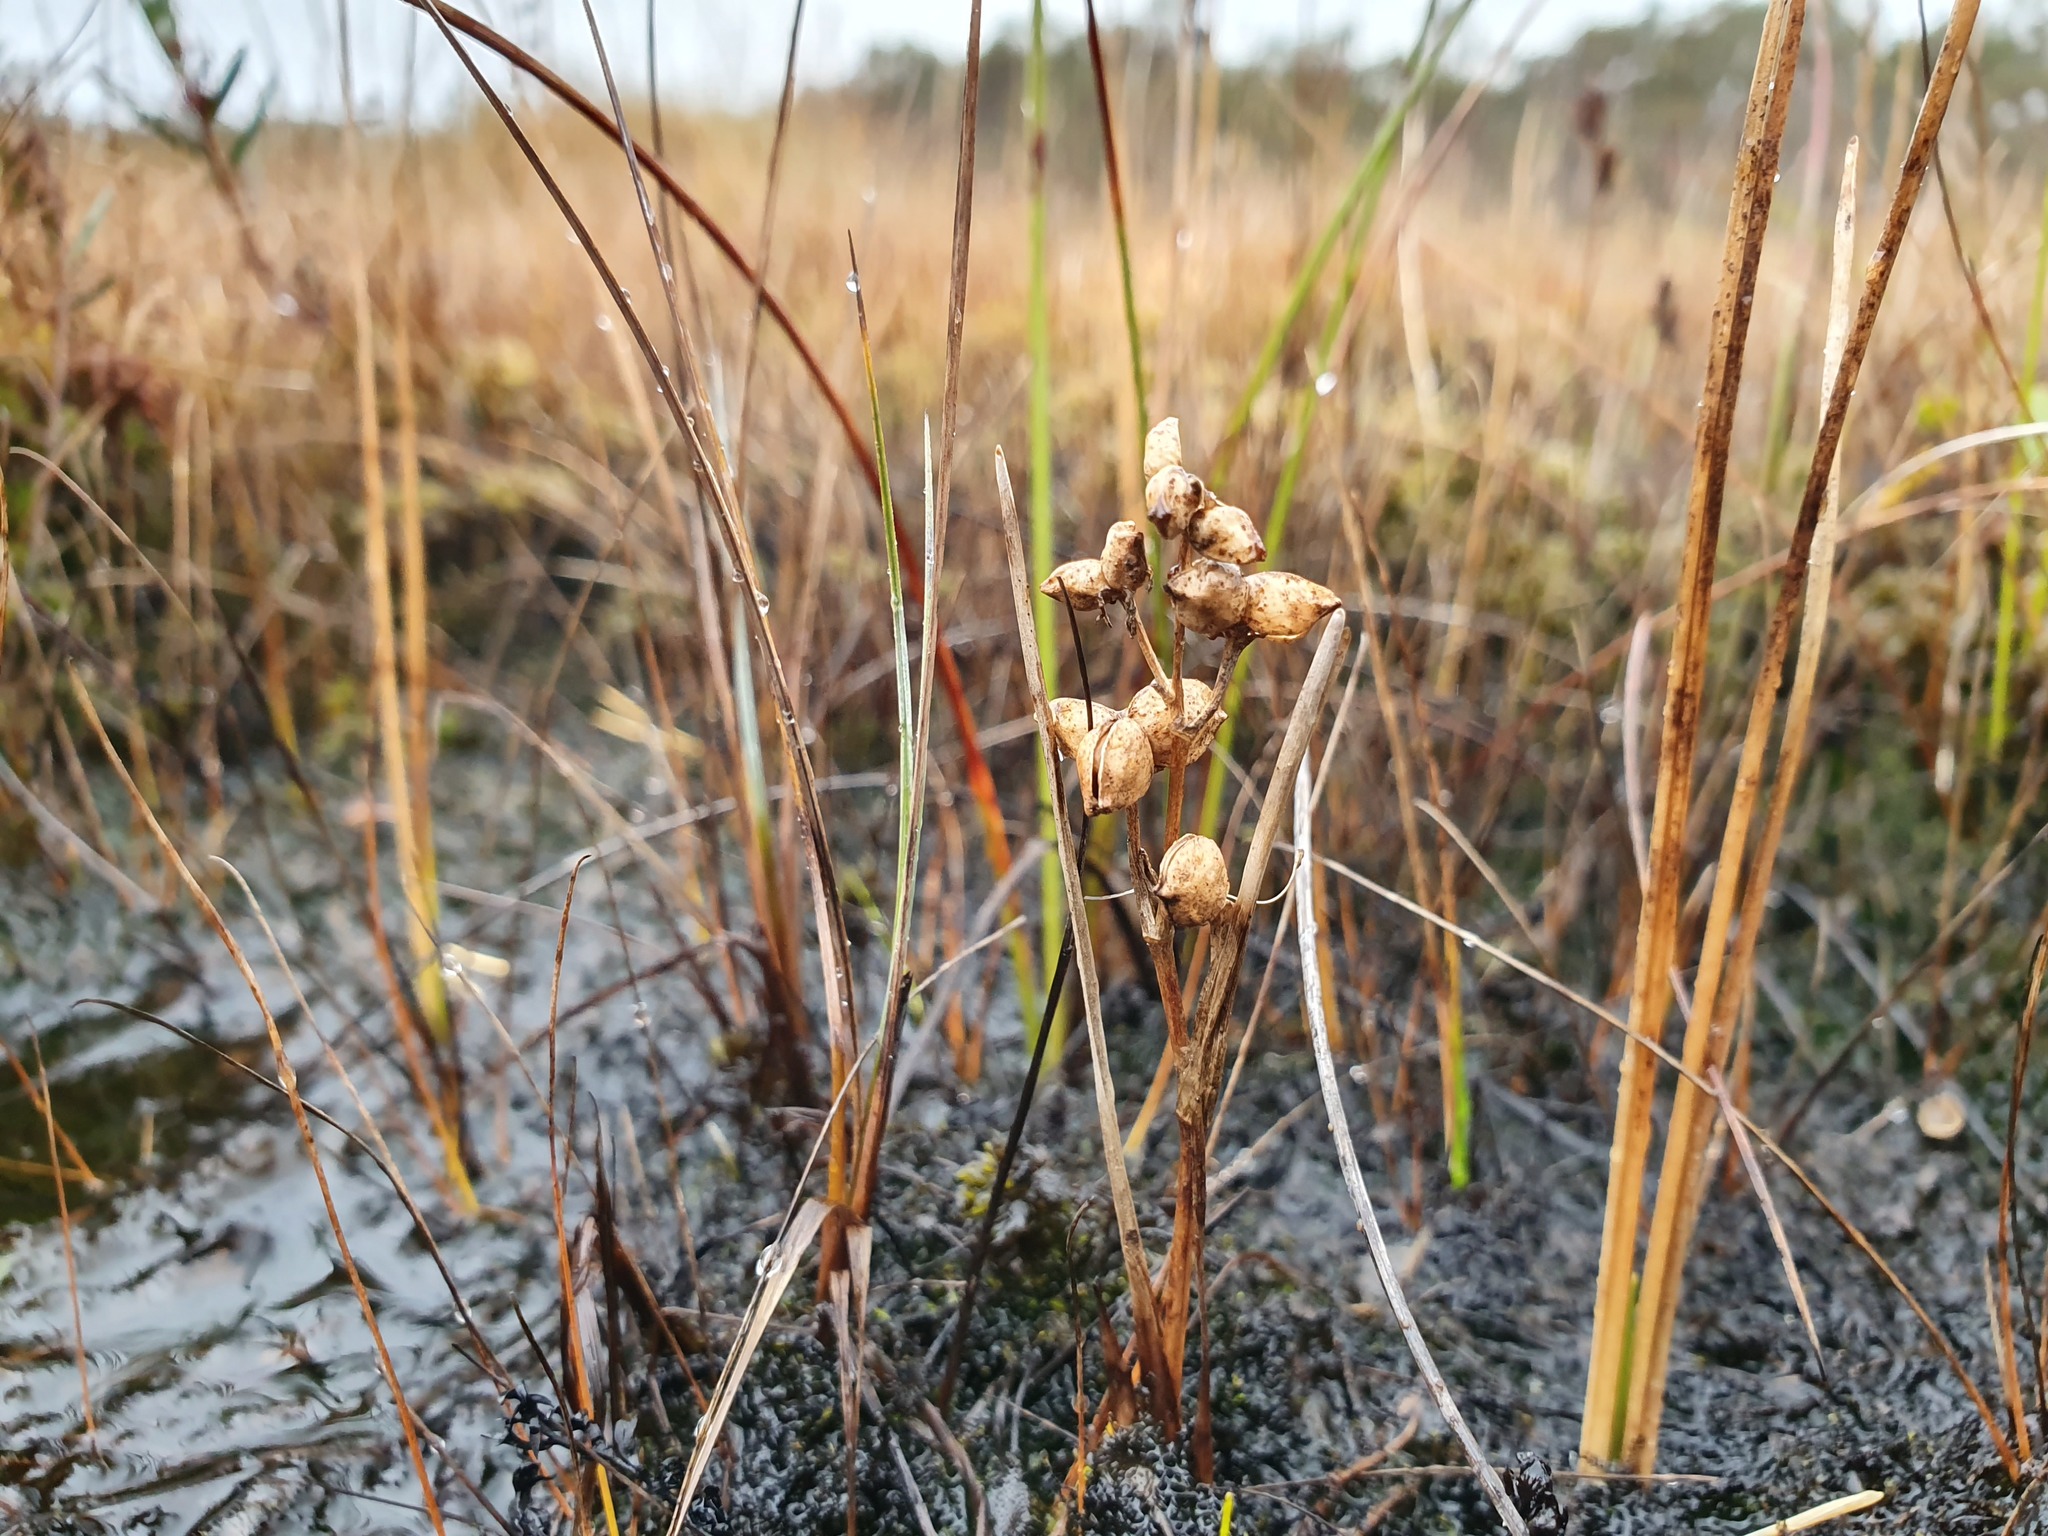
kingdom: Plantae
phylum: Tracheophyta
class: Liliopsida
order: Alismatales
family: Scheuchzeriaceae
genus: Scheuchzeria
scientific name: Scheuchzeria palustris
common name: Rannoch-rush
